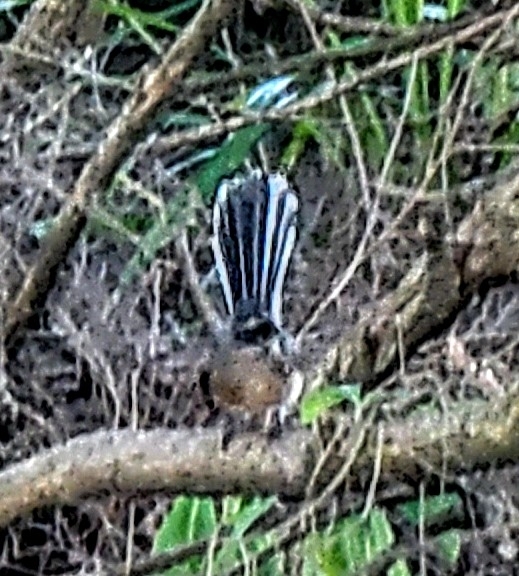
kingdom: Animalia
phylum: Chordata
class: Aves
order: Passeriformes
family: Rhipiduridae
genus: Rhipidura
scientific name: Rhipidura fuliginosa
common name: New zealand fantail
